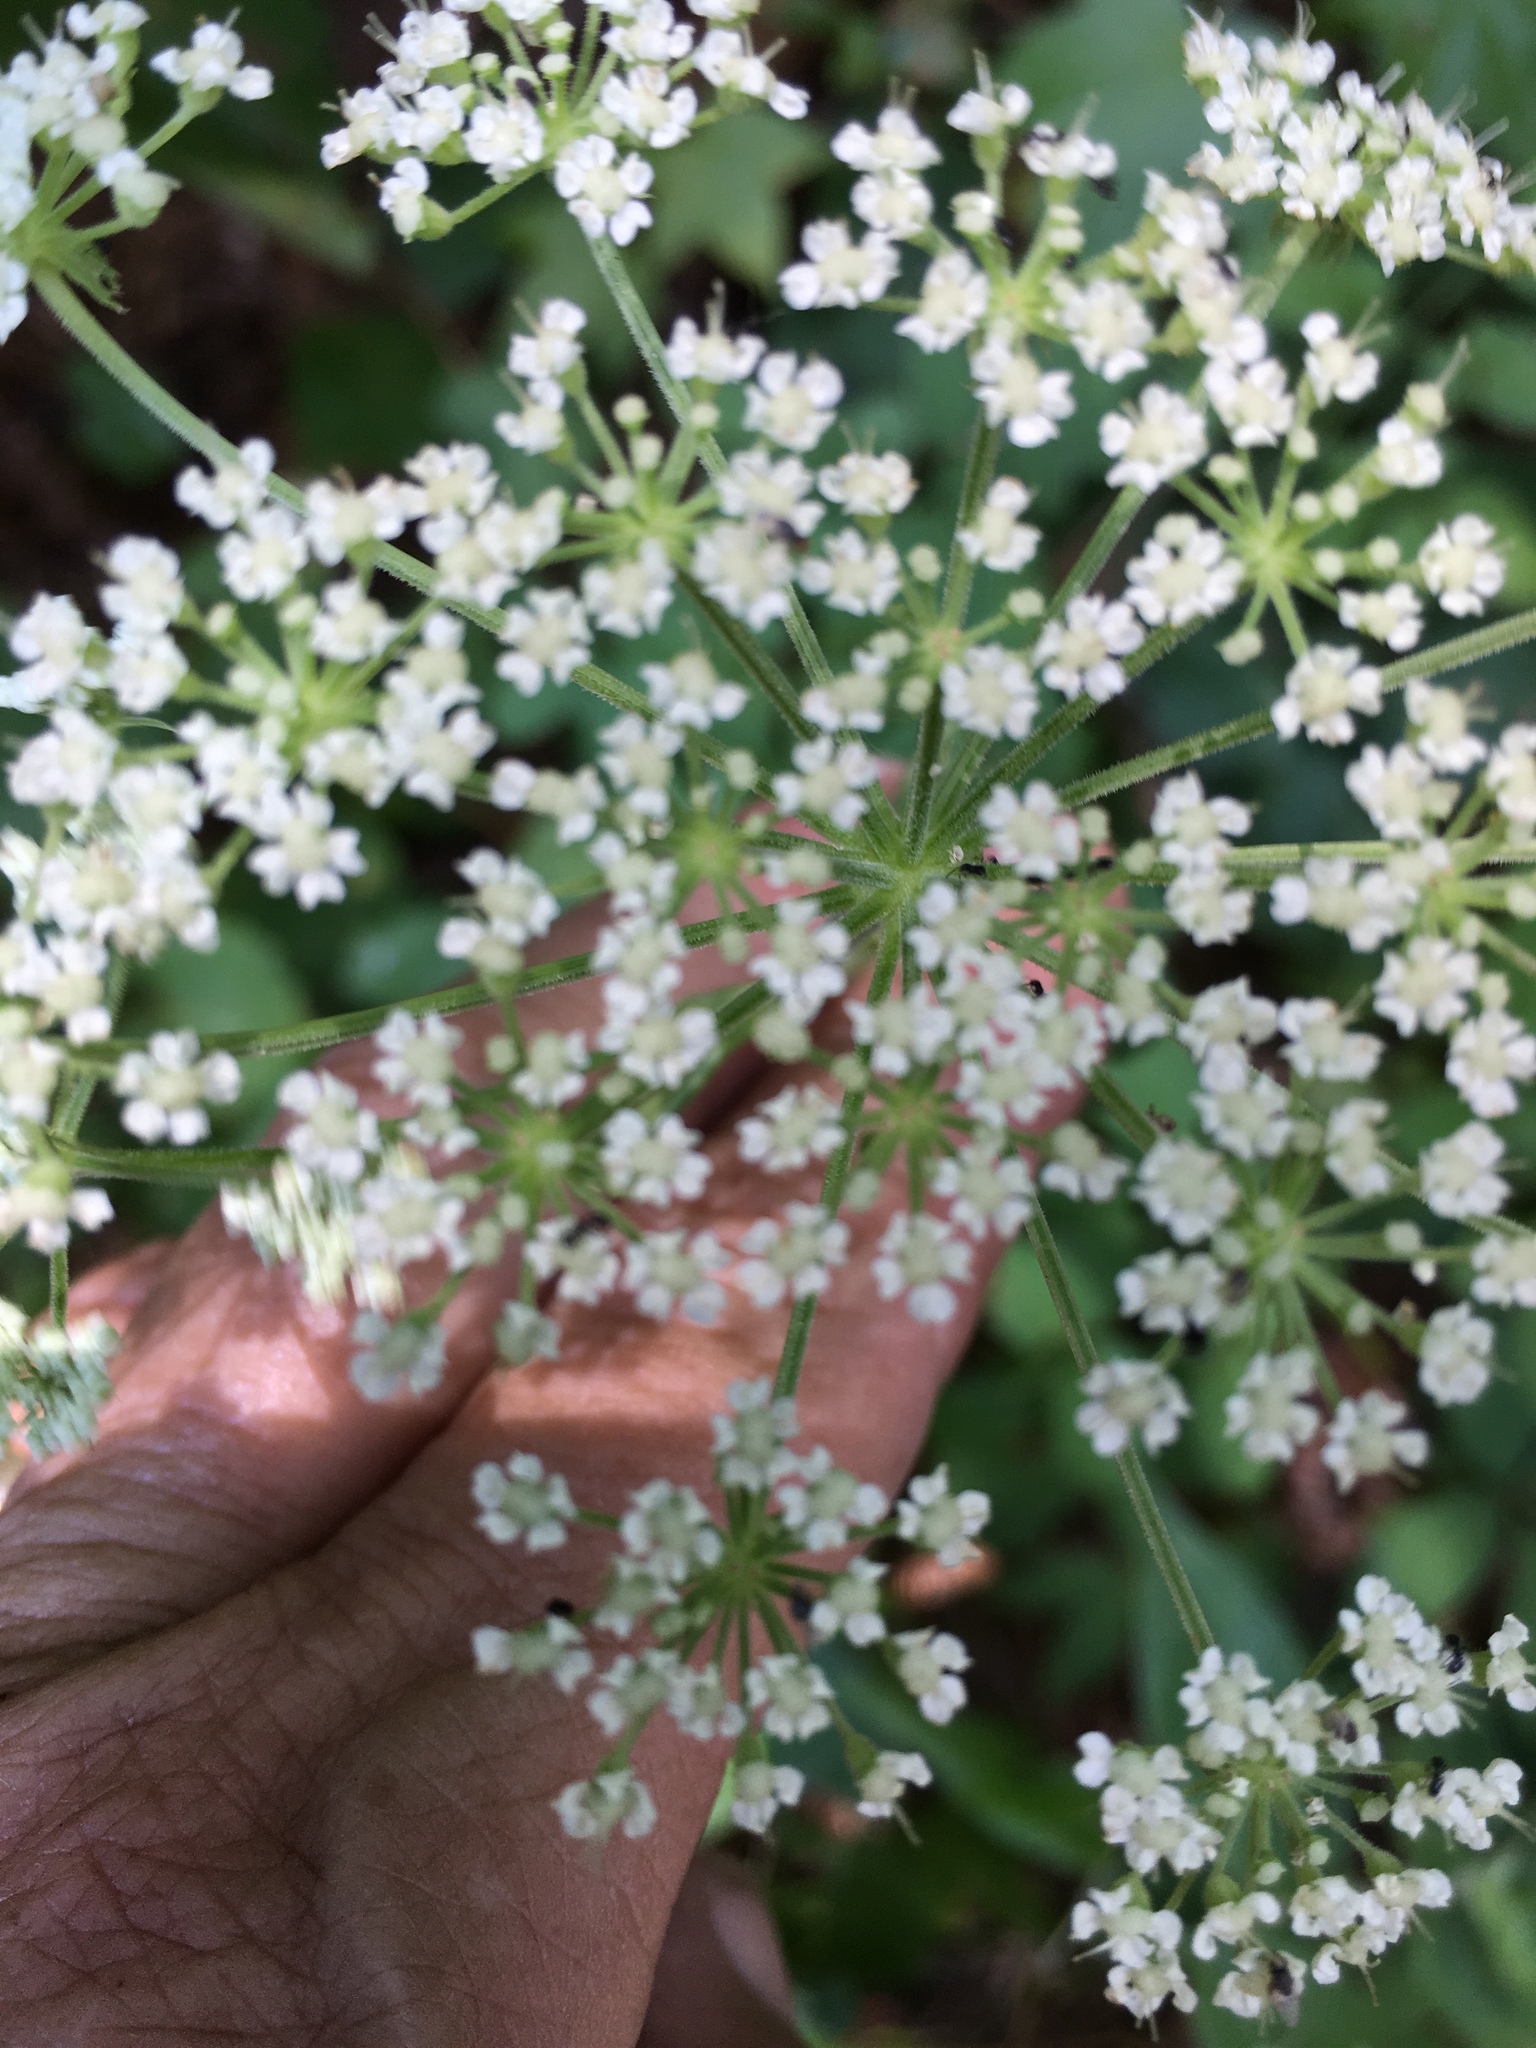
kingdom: Plantae
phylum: Tracheophyta
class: Magnoliopsida
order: Apiales
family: Apiaceae
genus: Angelica
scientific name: Angelica venenosa
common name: Hairy angelica
